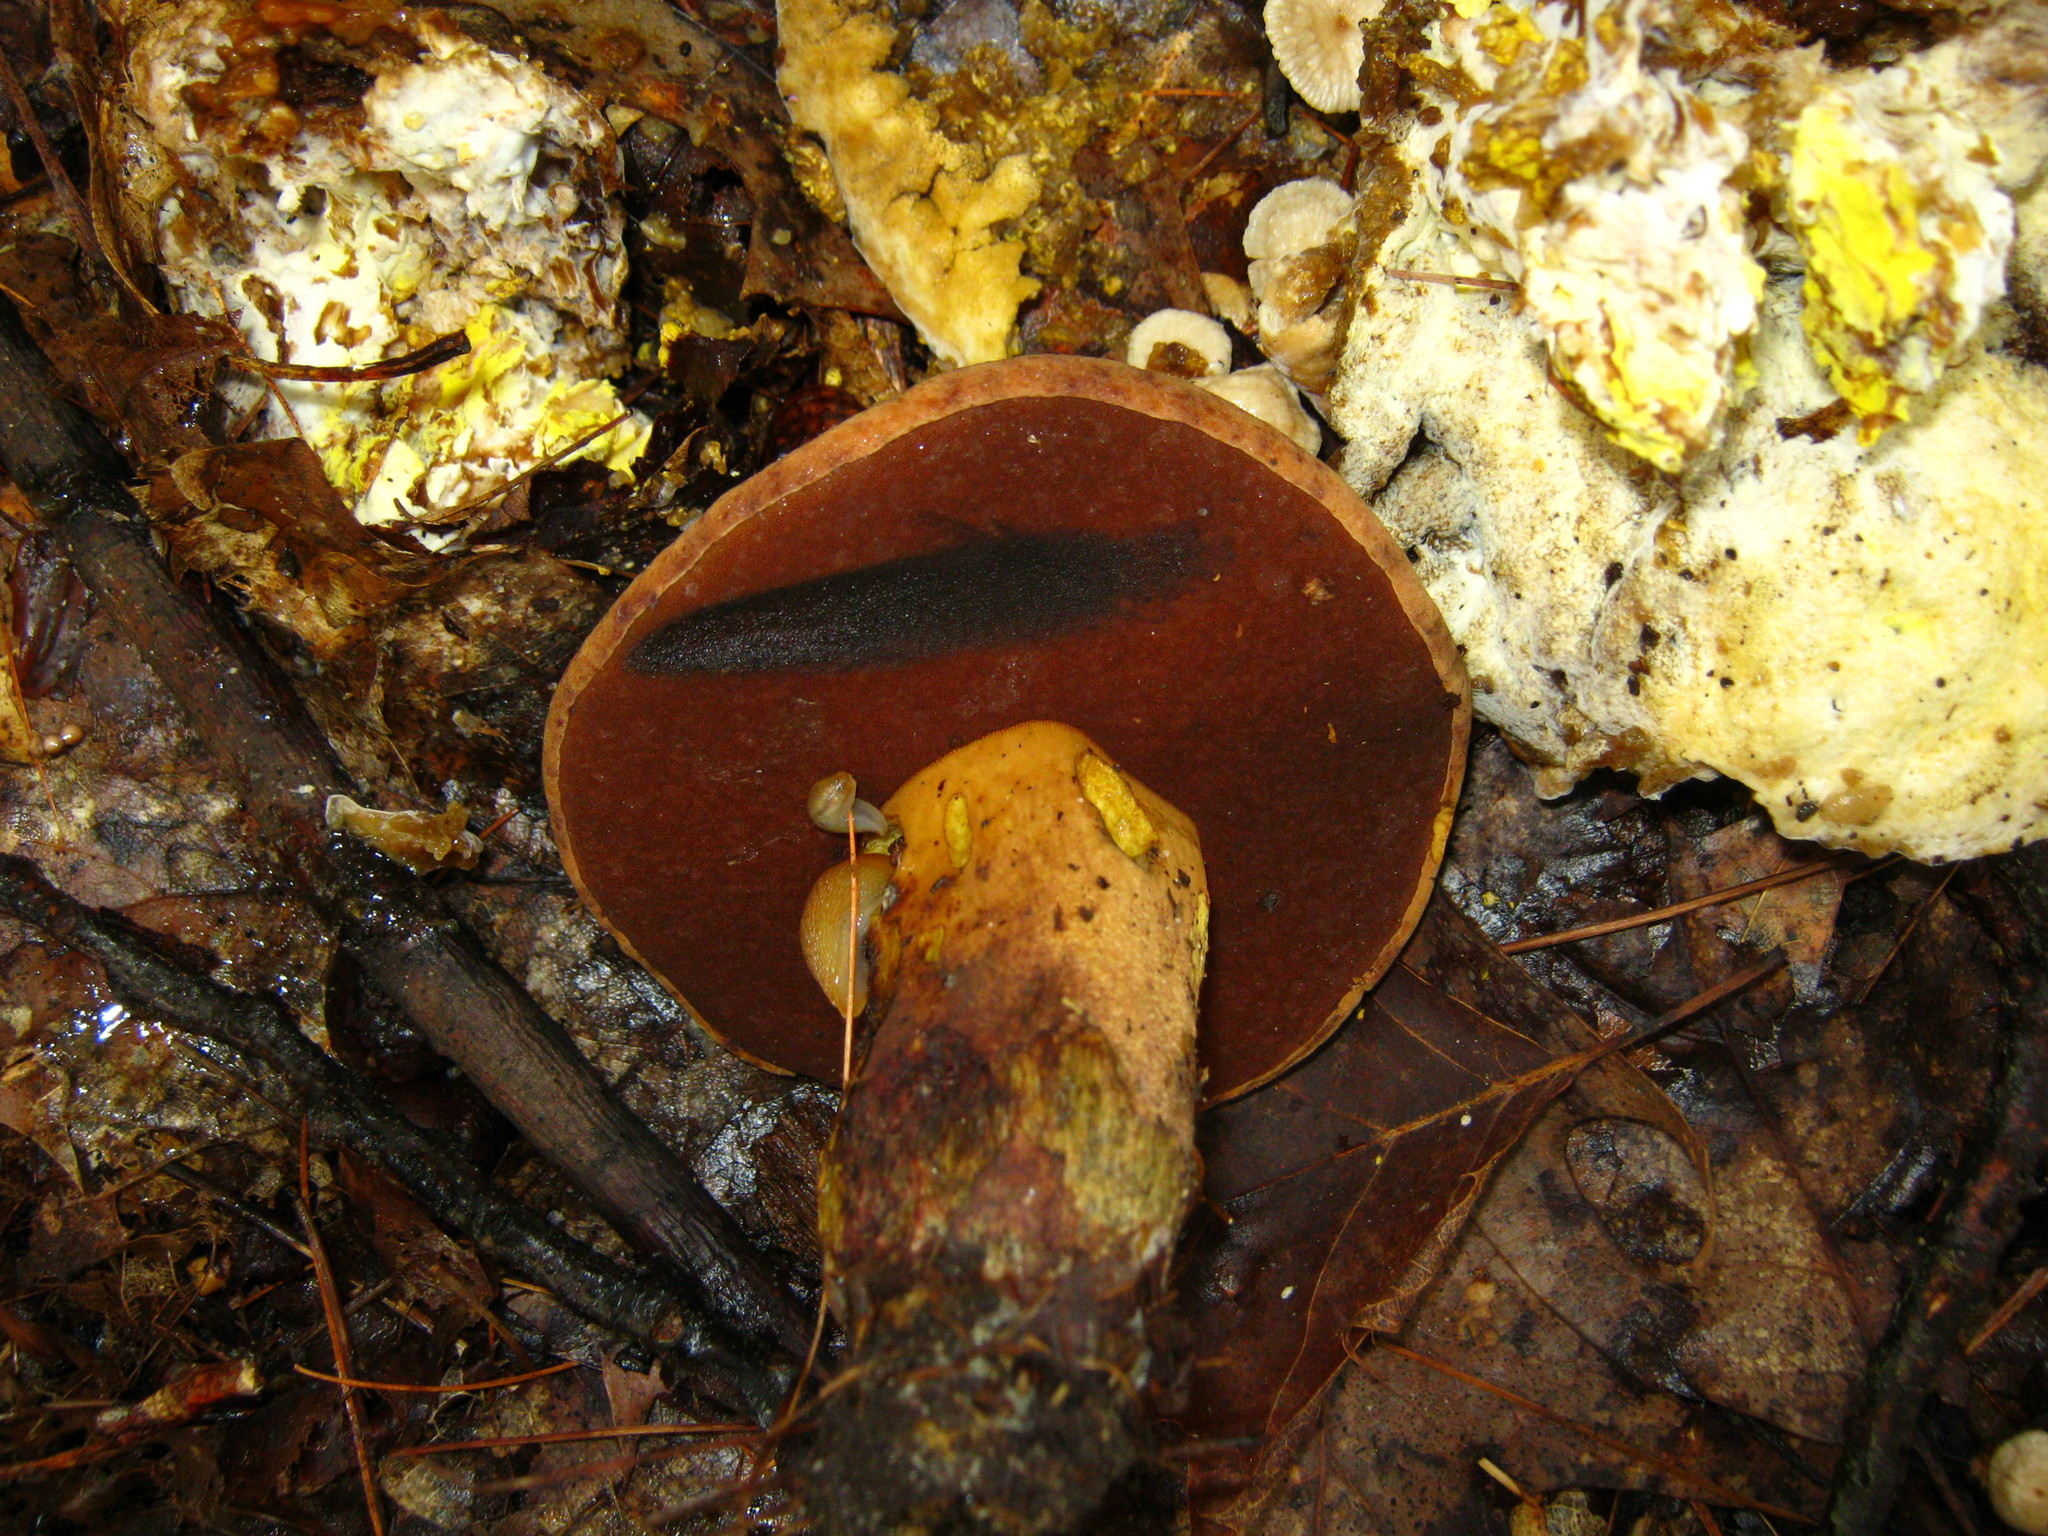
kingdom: Fungi
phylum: Basidiomycota
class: Agaricomycetes
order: Boletales
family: Boletaceae
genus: Boletus
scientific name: Boletus subvelutipes
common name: Red-mouth bolete
